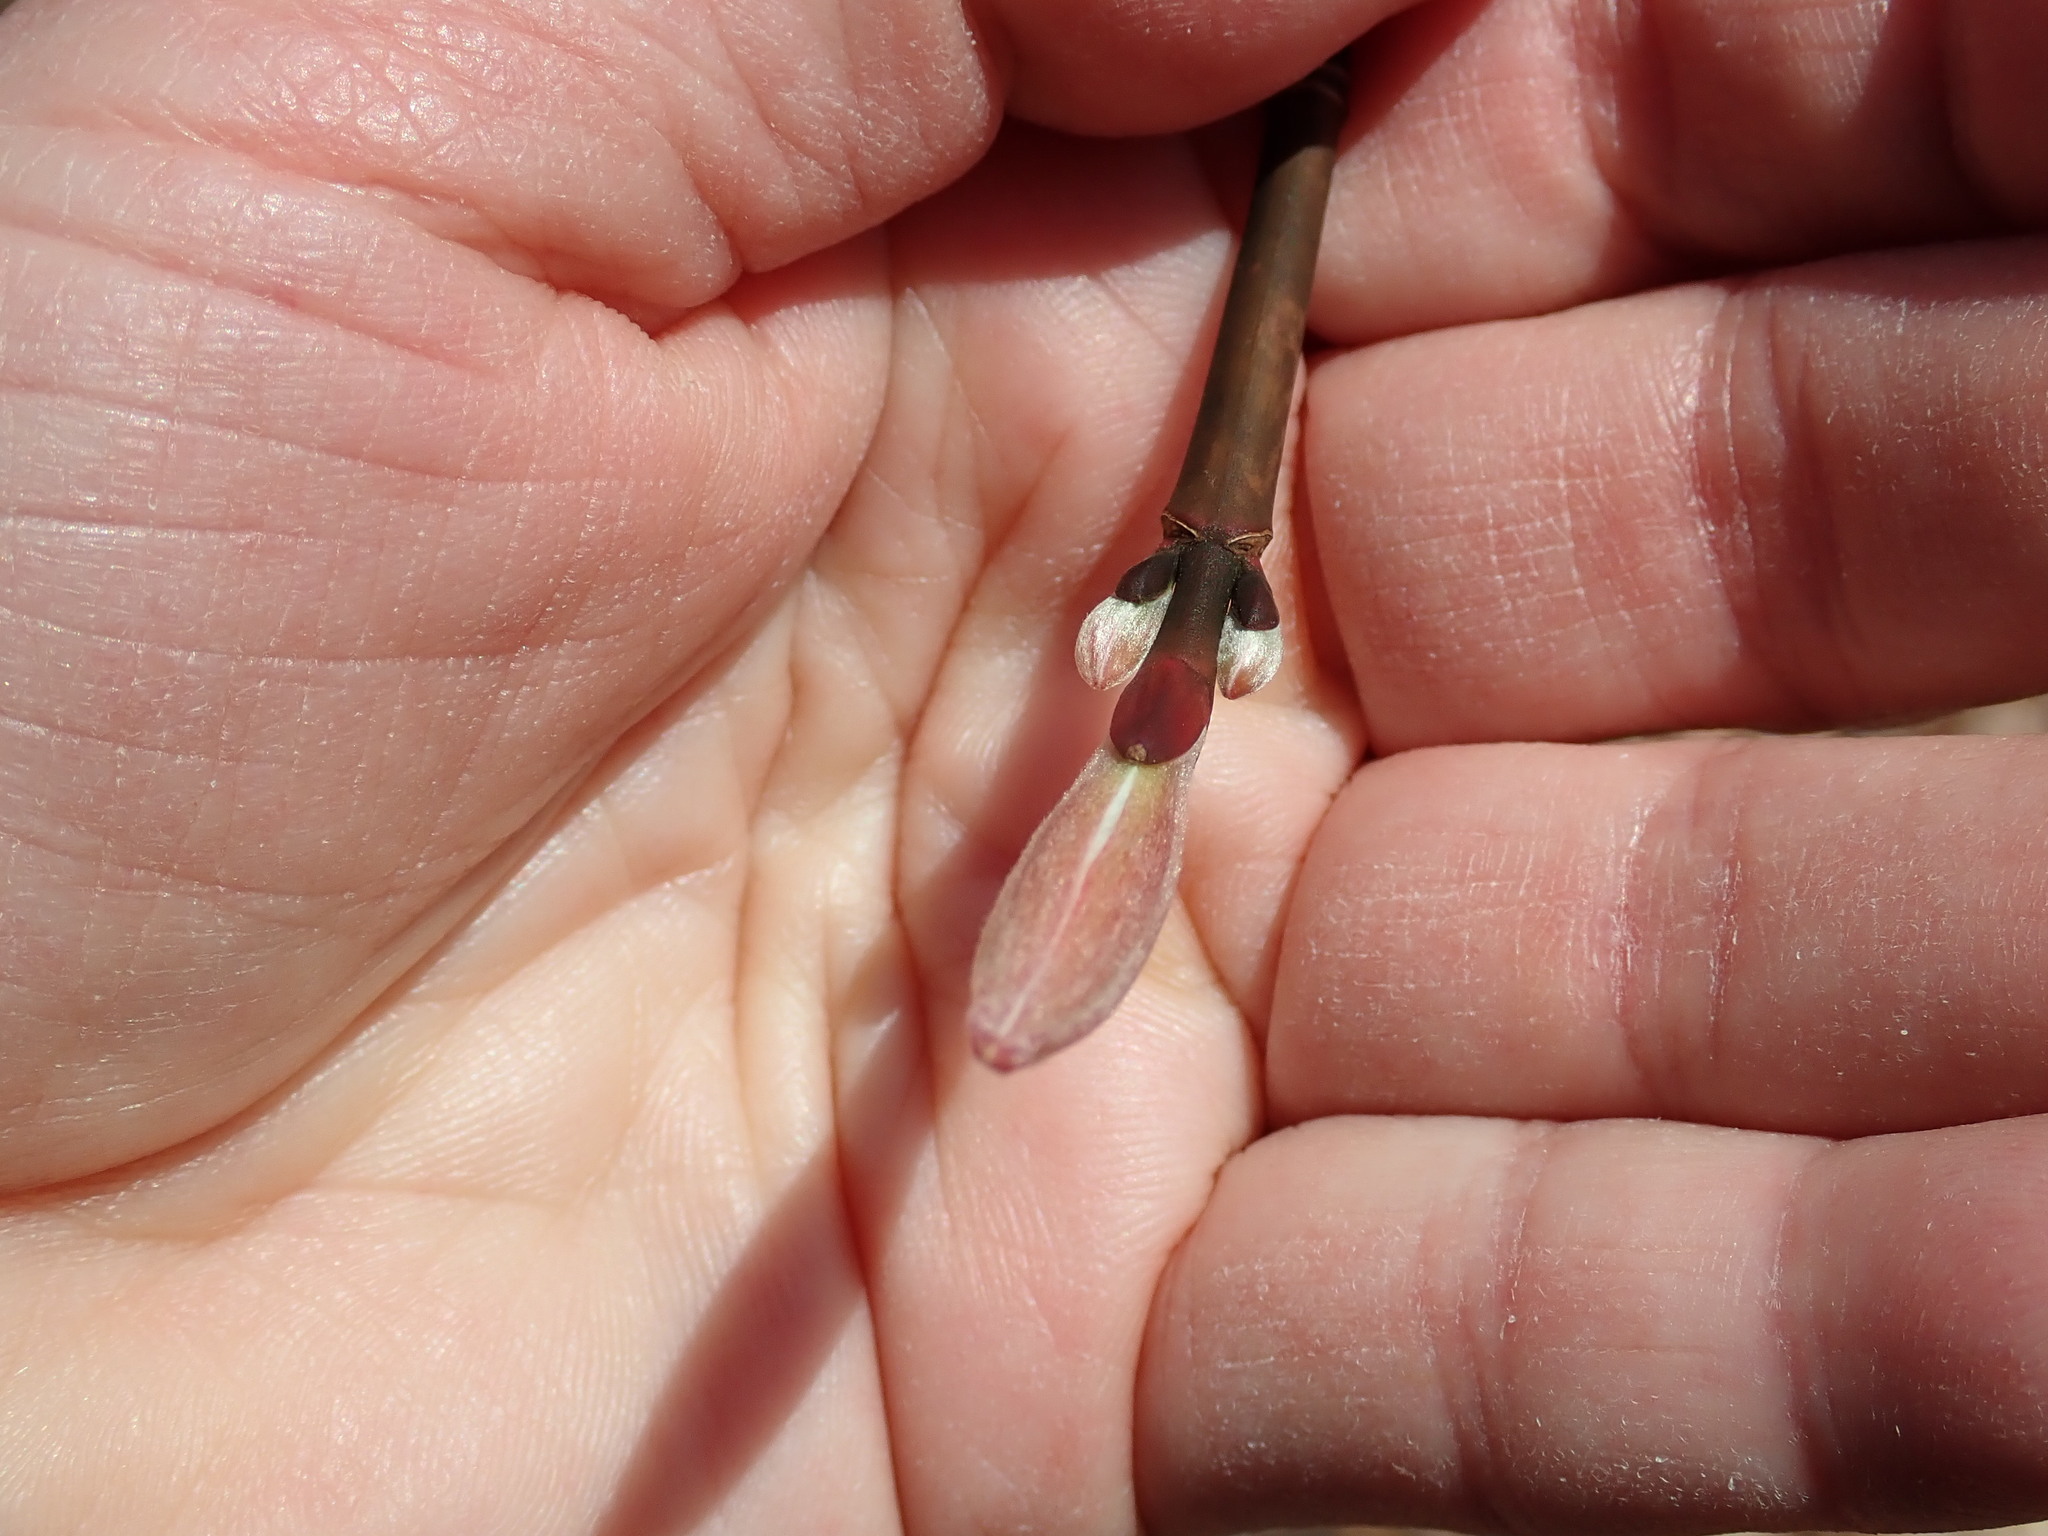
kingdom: Plantae
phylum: Tracheophyta
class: Magnoliopsida
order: Sapindales
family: Sapindaceae
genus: Acer
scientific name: Acer pensylvanicum
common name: Moosewood
